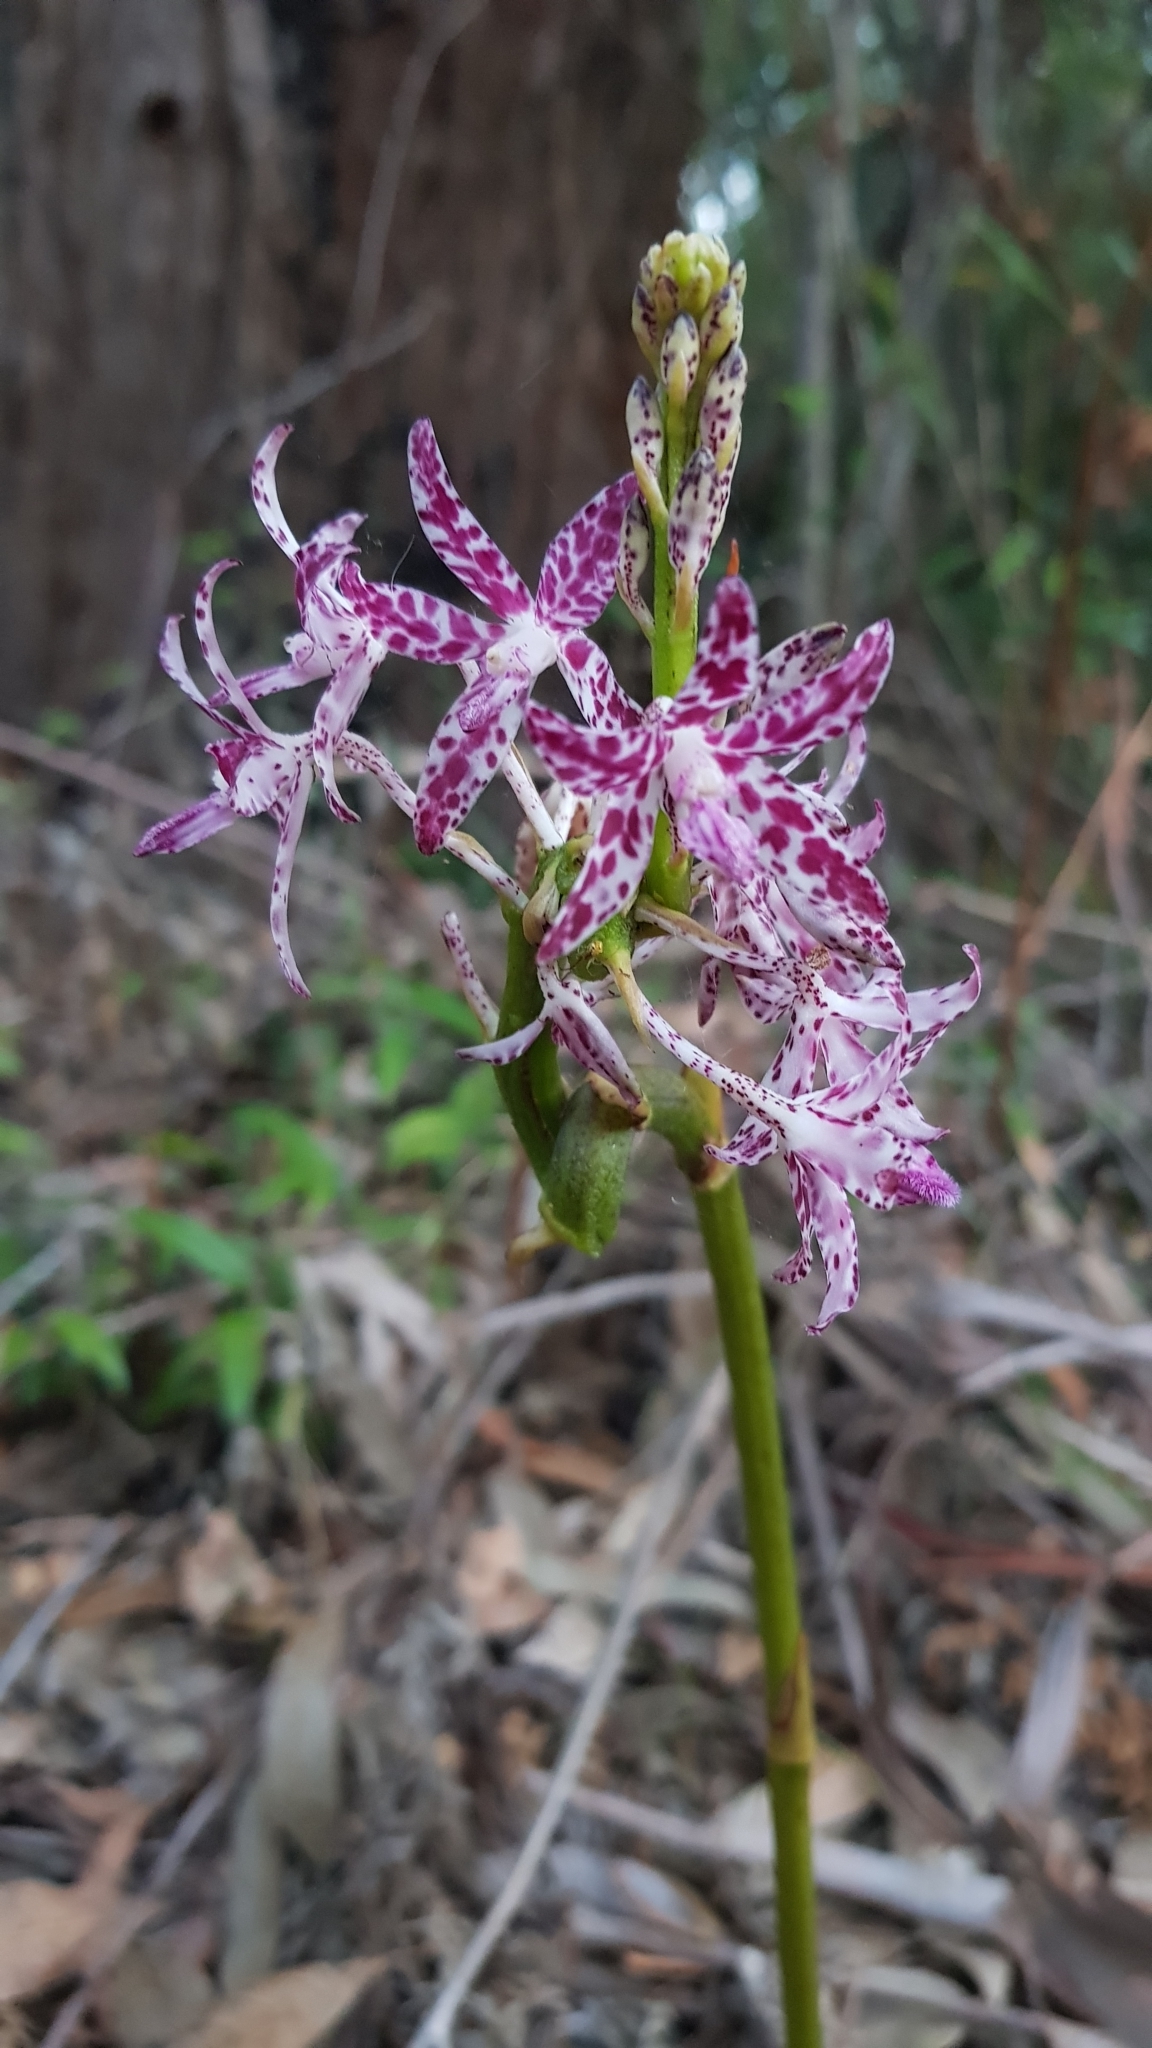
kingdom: Plantae
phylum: Tracheophyta
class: Liliopsida
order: Asparagales
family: Orchidaceae
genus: Dipodium
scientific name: Dipodium variegatum
